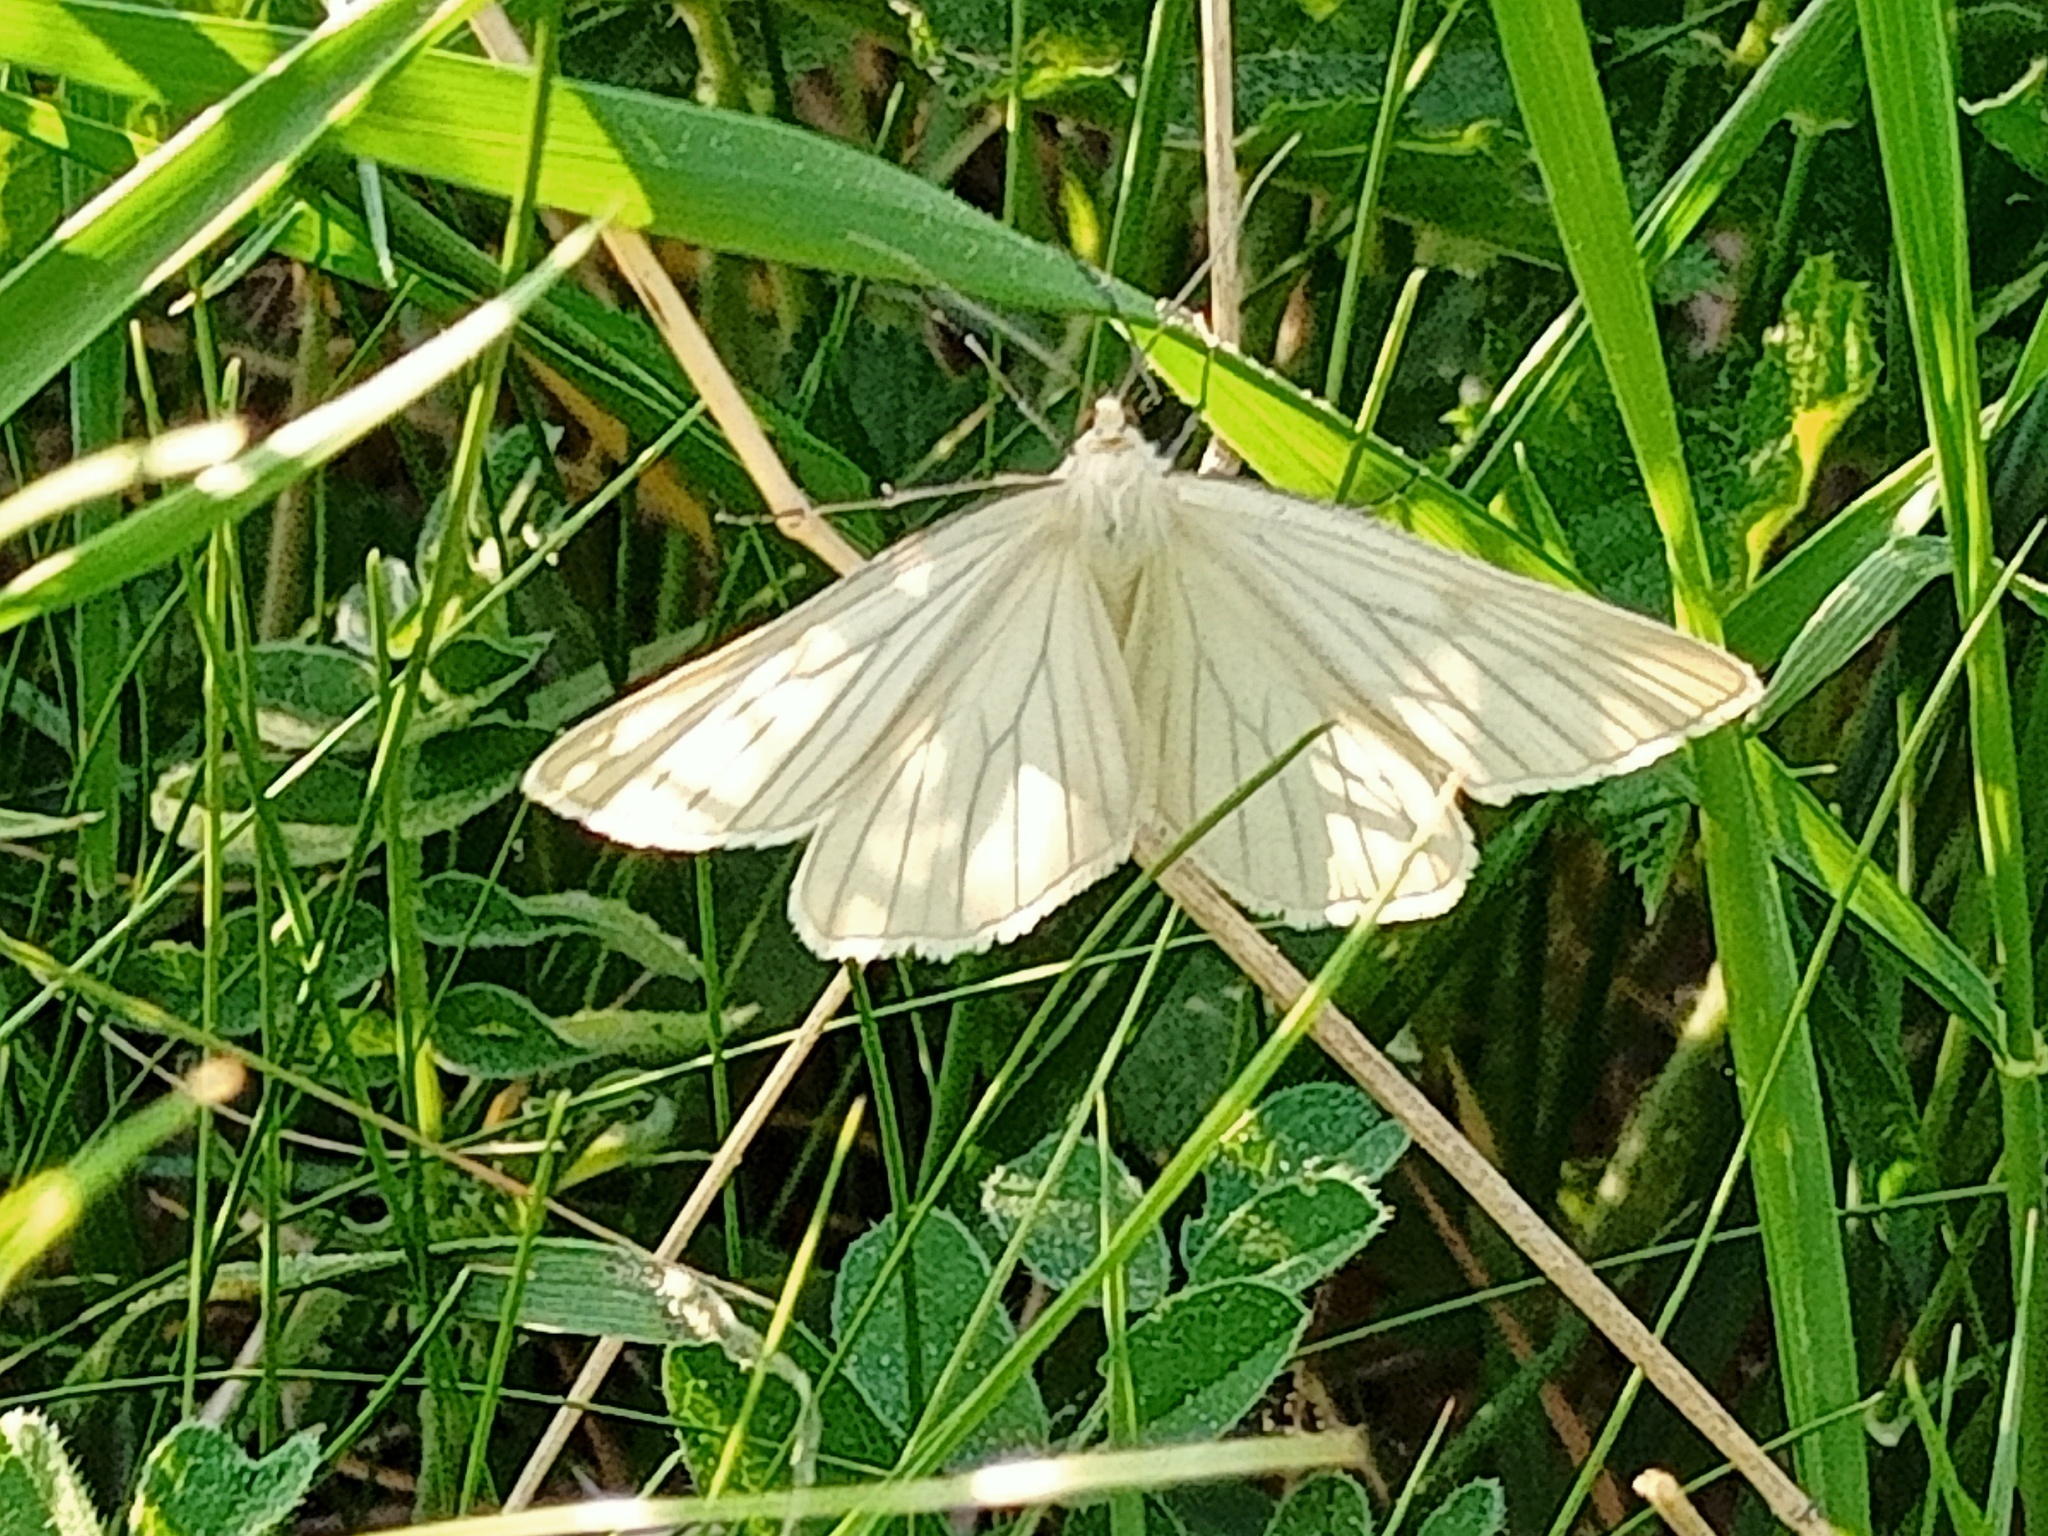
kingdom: Animalia
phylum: Arthropoda
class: Insecta
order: Lepidoptera
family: Geometridae
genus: Siona
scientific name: Siona lineata
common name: Black-veined moth
